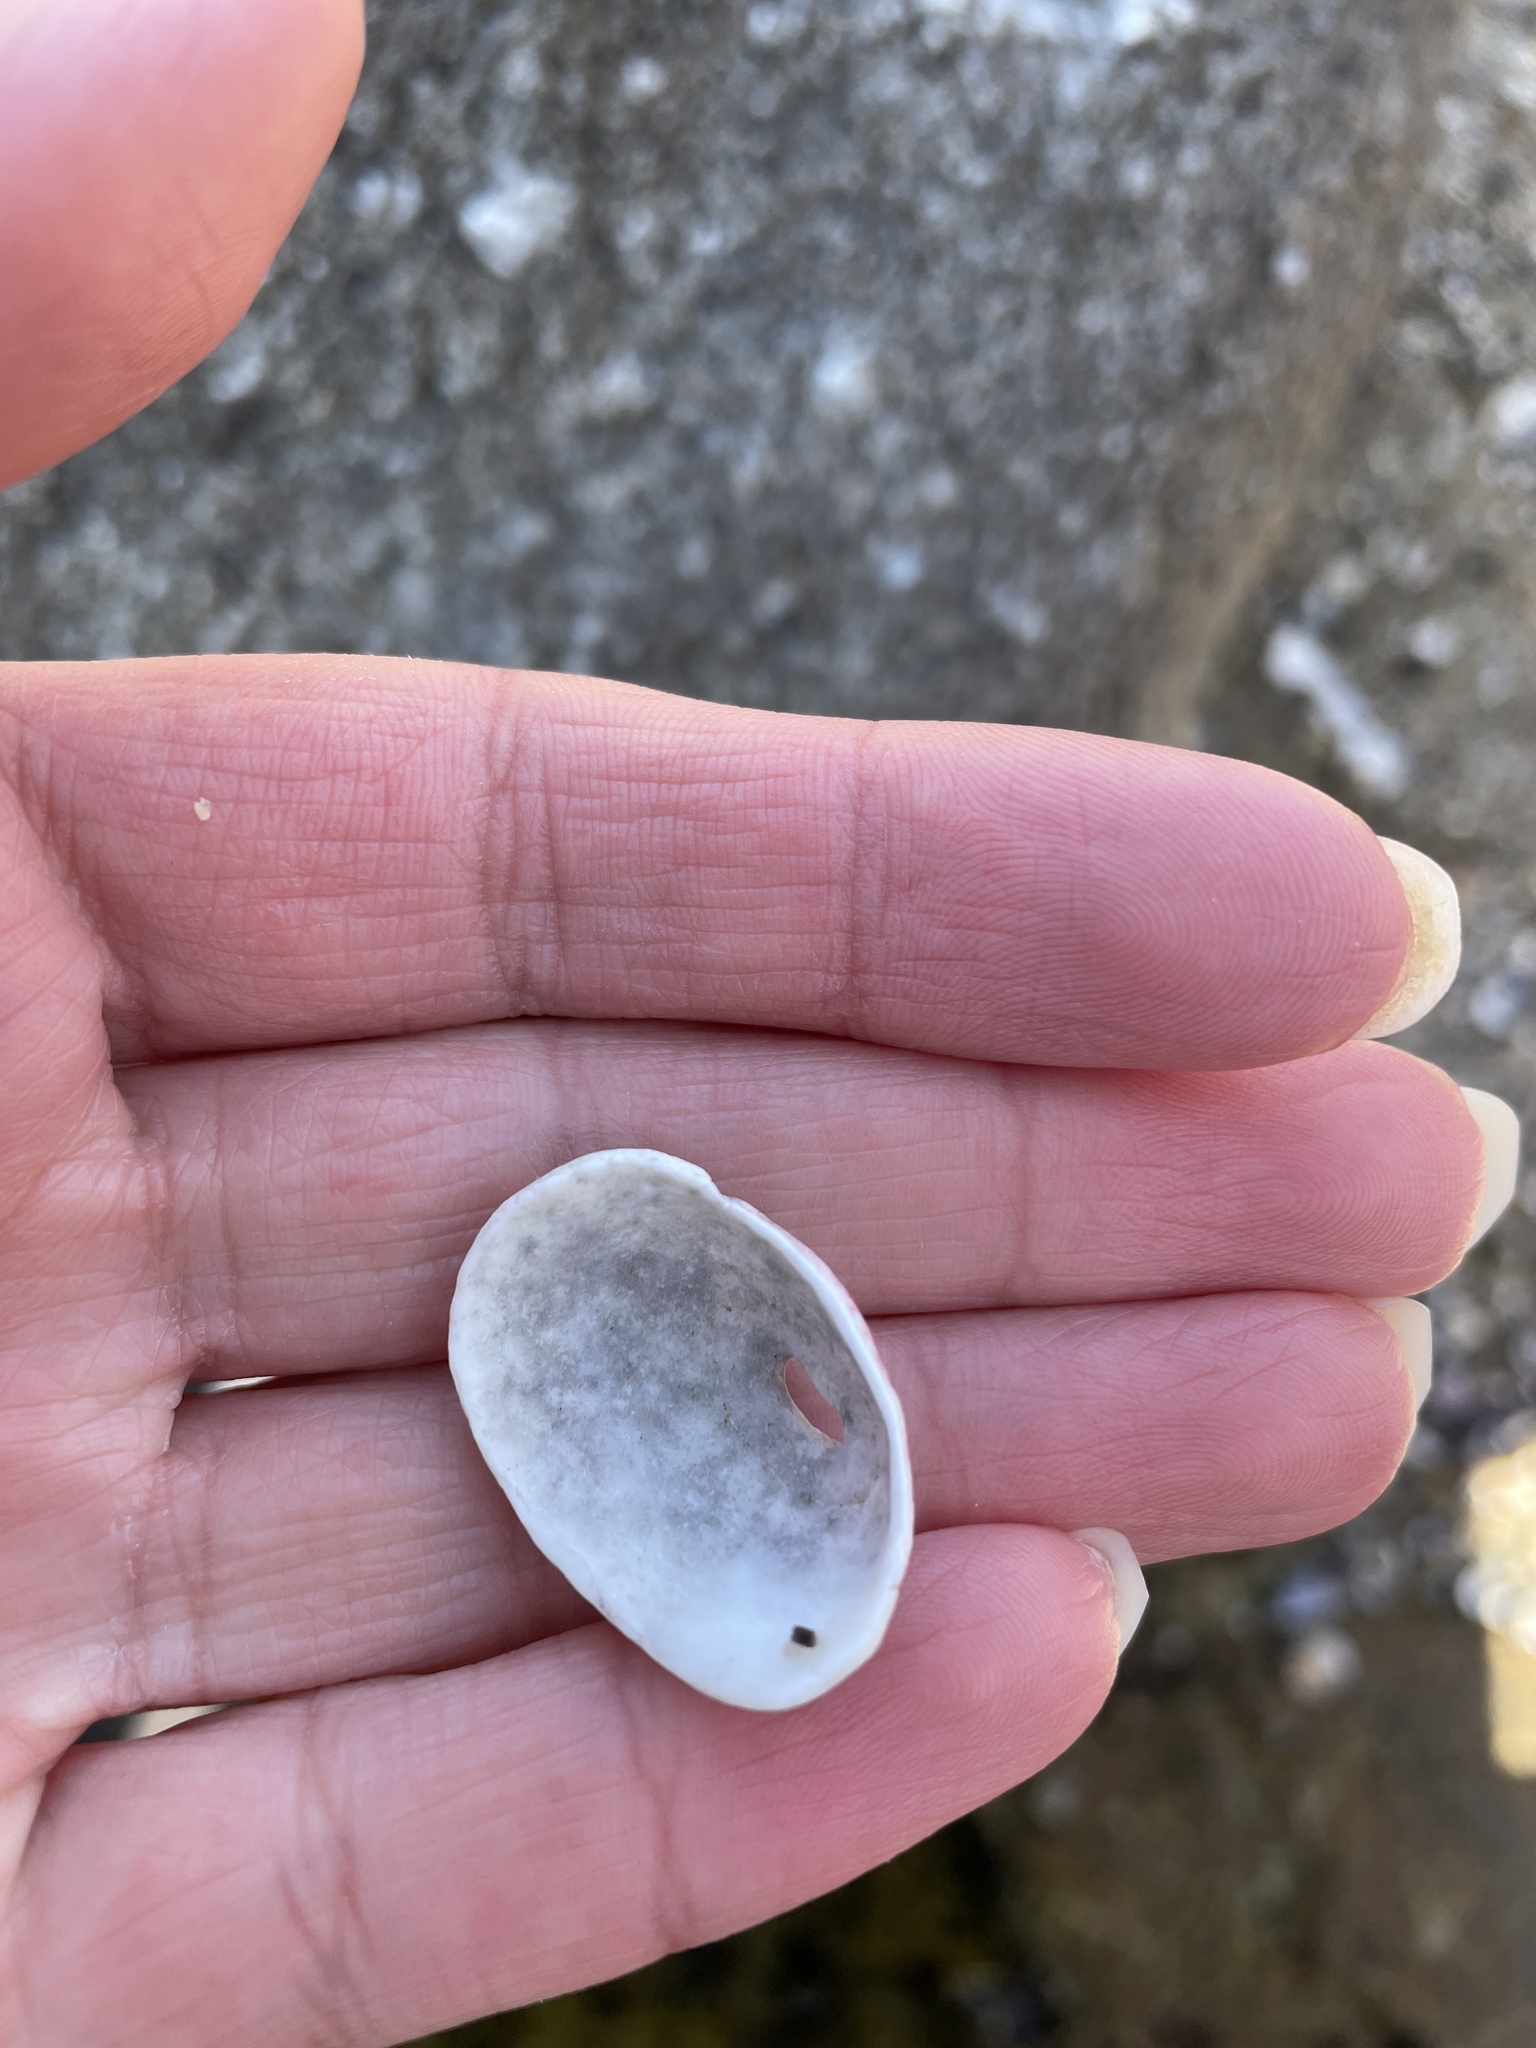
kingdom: Animalia
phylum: Mollusca
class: Gastropoda
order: Lepetellida
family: Fissurellidae
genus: Fissurella
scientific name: Fissurella volcano
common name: Volcano keyhole limpet
